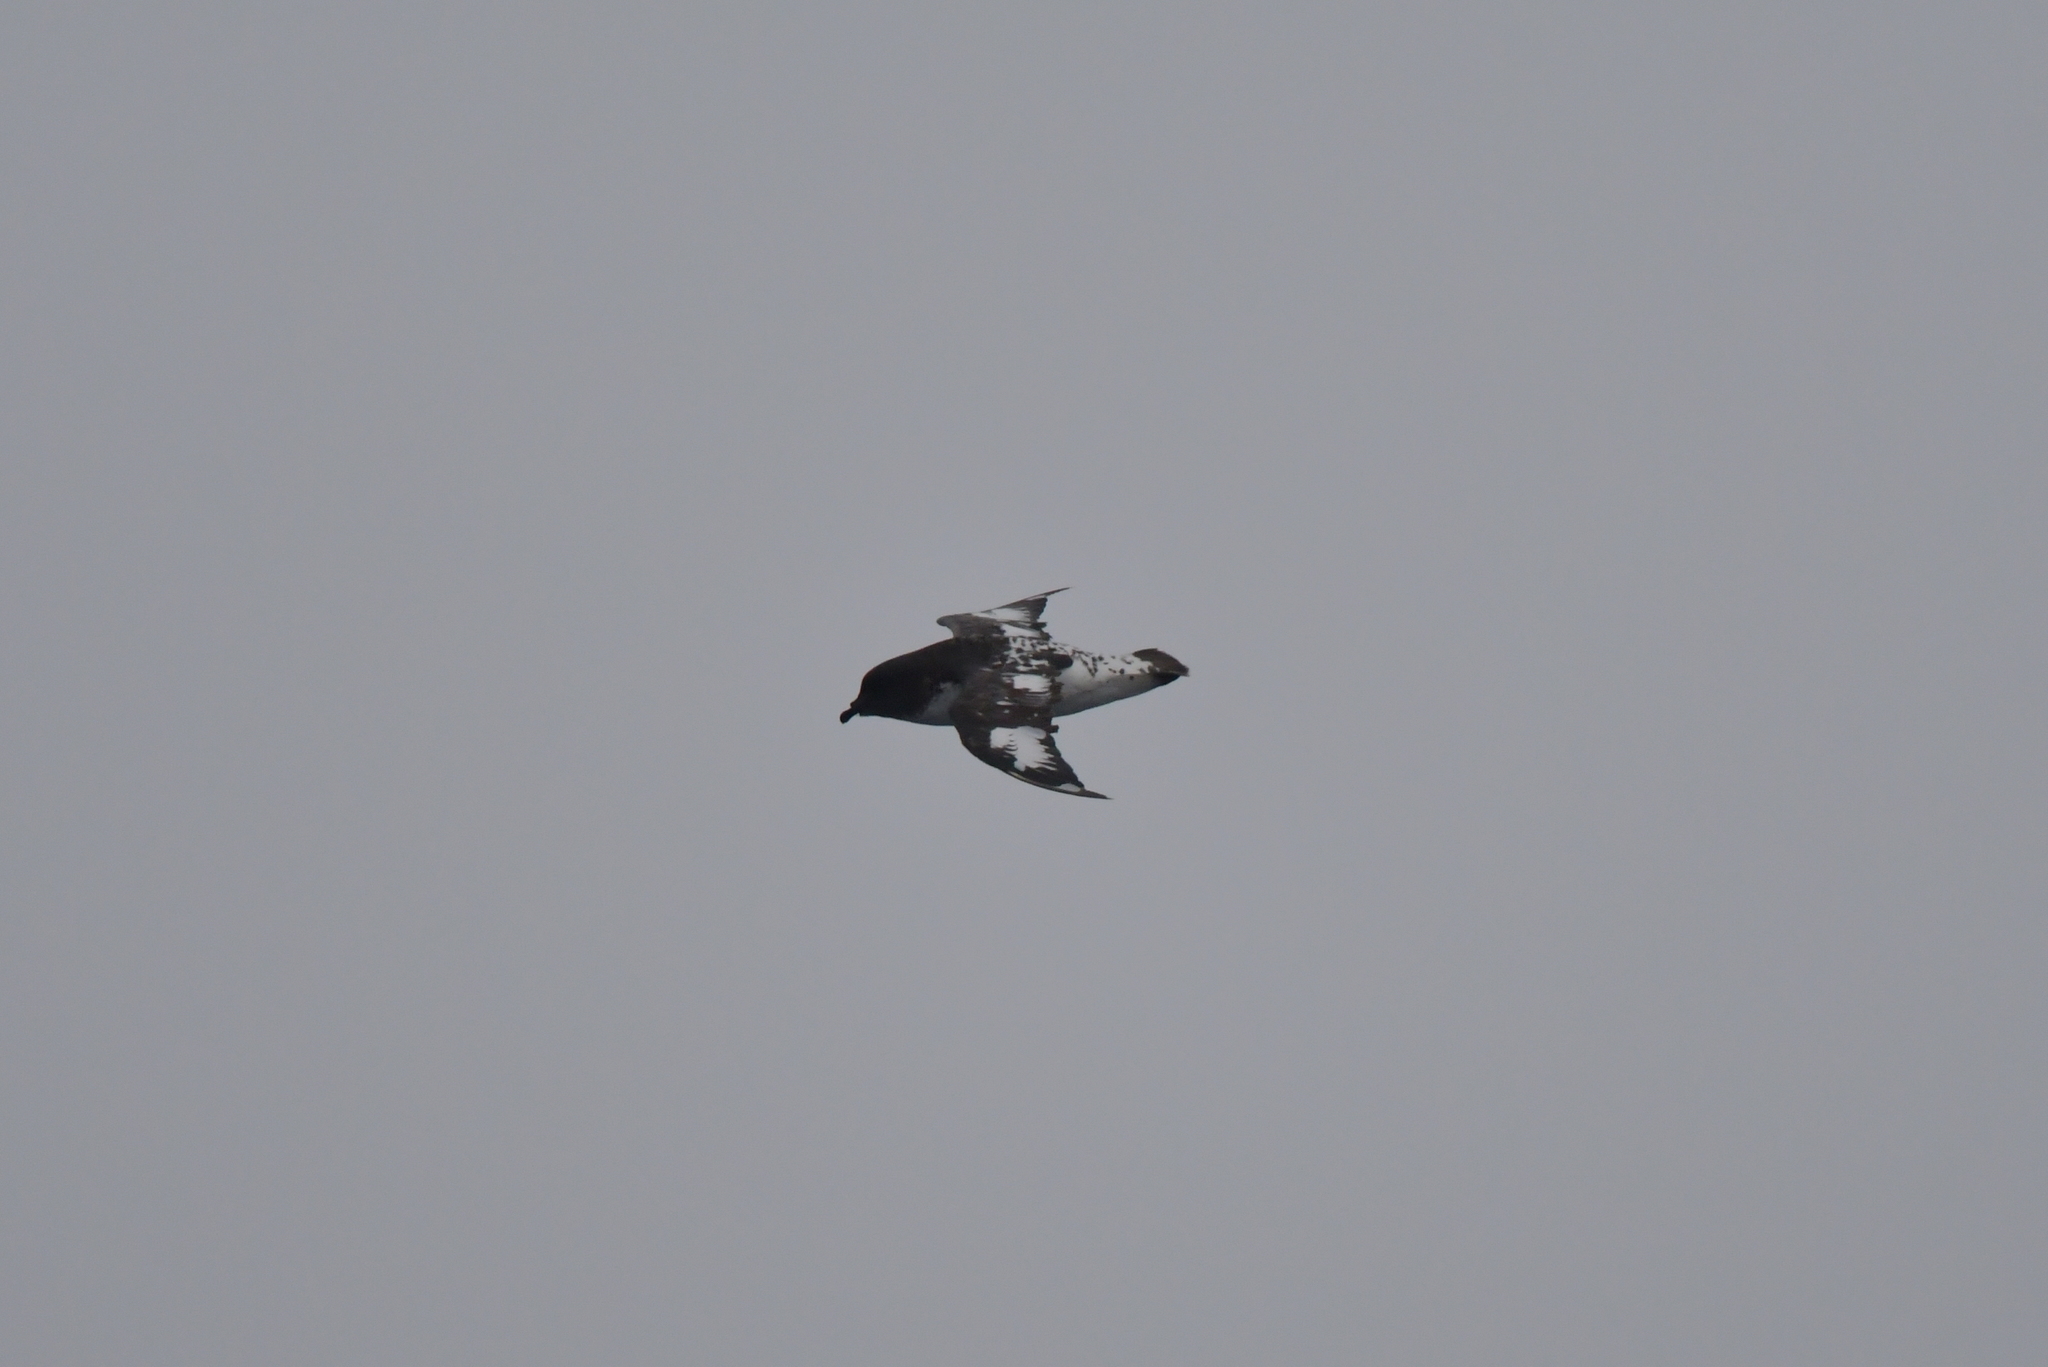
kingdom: Animalia
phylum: Chordata
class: Aves
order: Procellariiformes
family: Procellariidae
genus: Daption
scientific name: Daption capense
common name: Cape petrel
